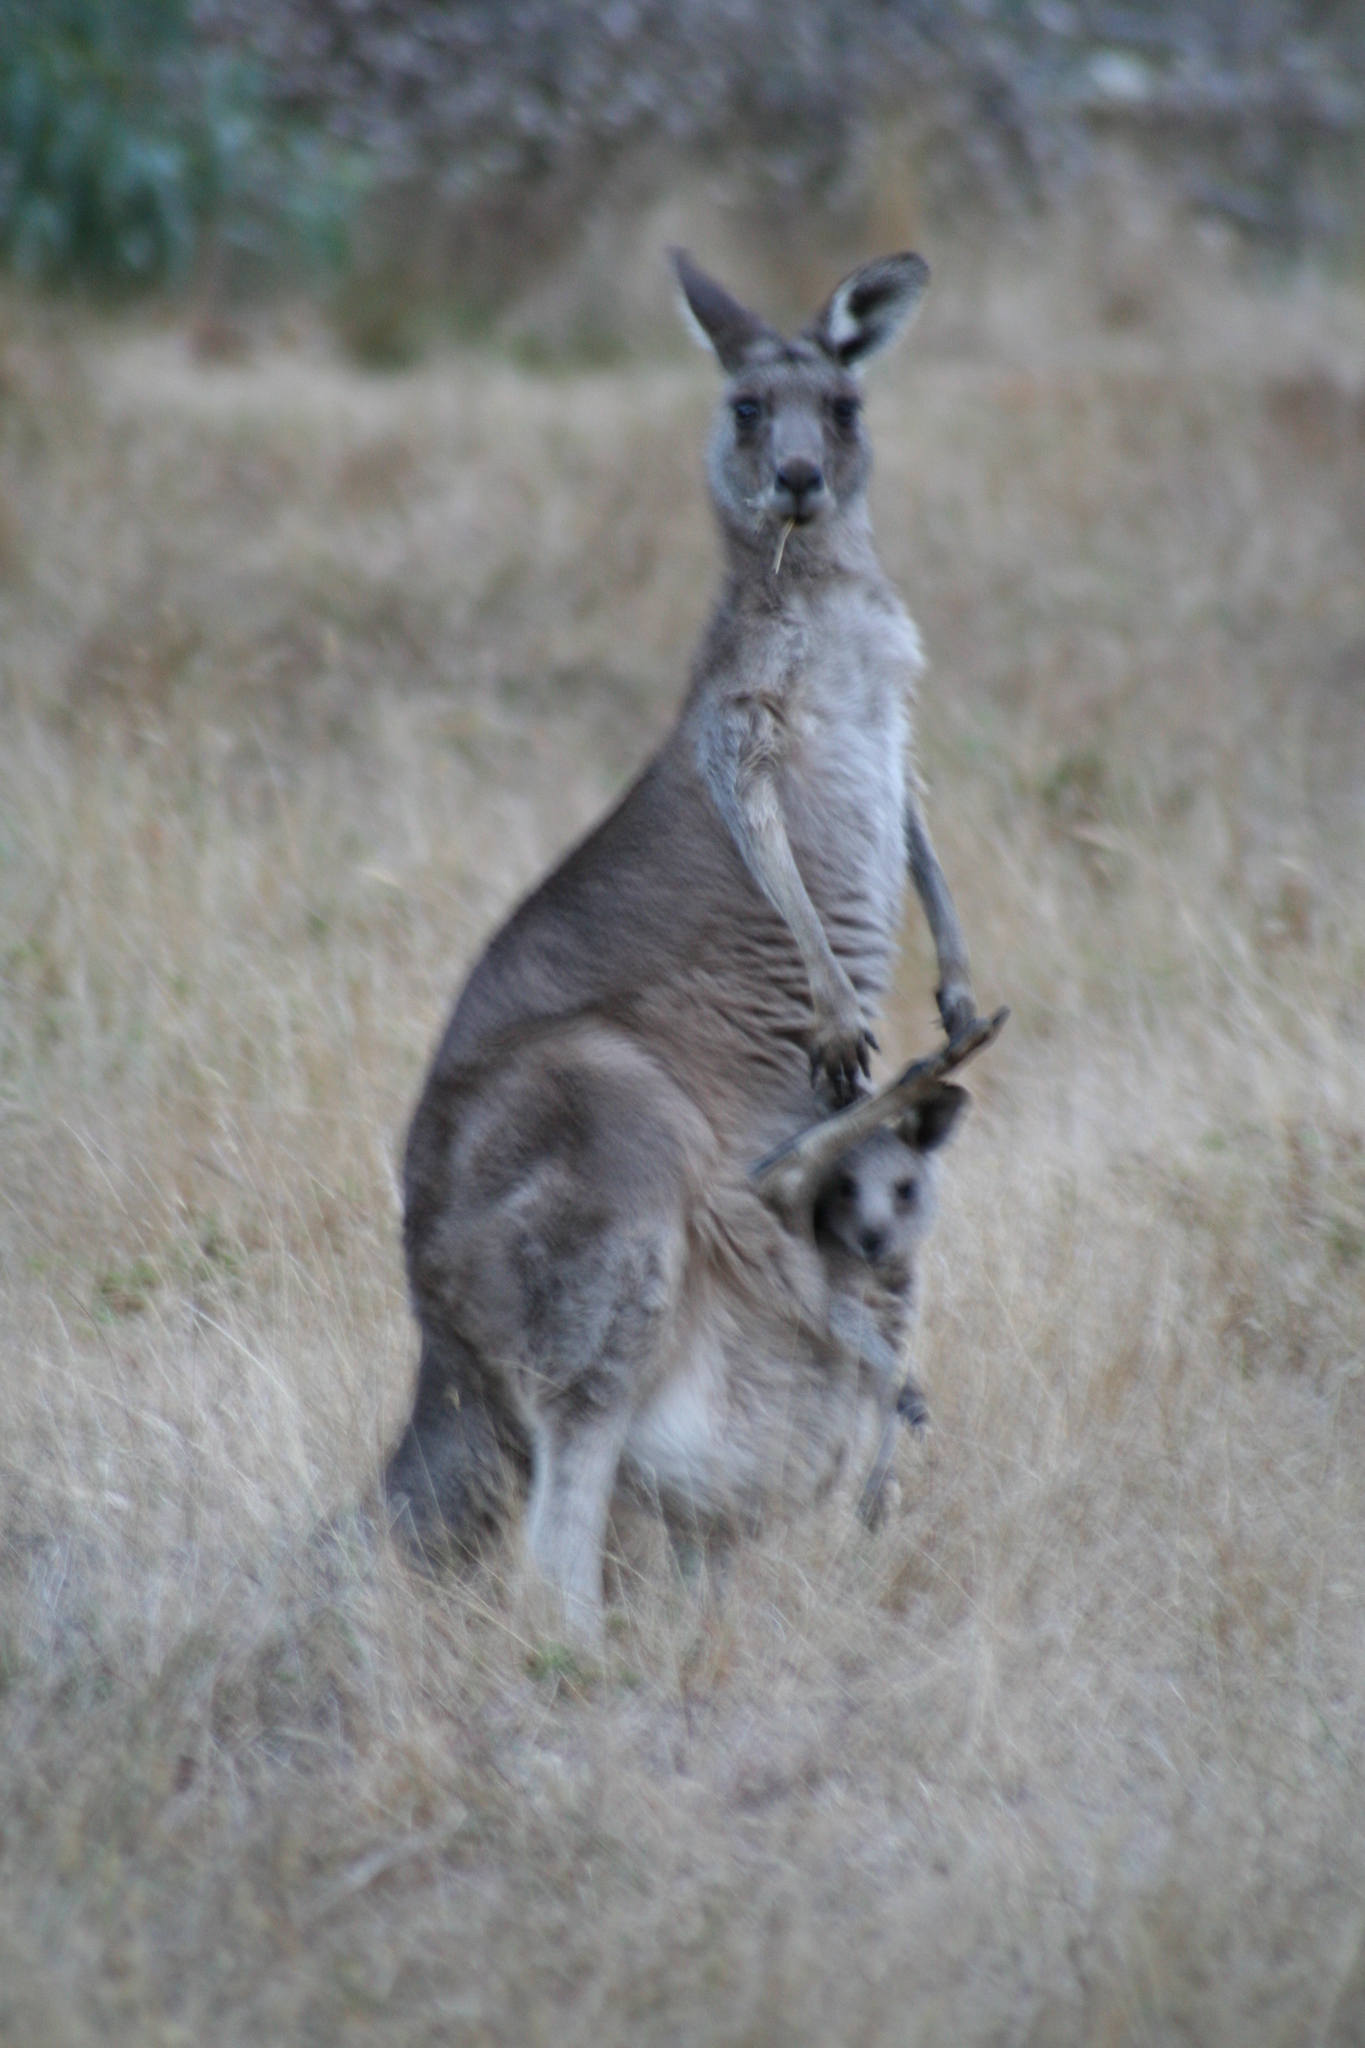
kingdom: Animalia
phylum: Chordata
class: Mammalia
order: Diprotodontia
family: Macropodidae
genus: Macropus
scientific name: Macropus giganteus
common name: Eastern grey kangaroo
